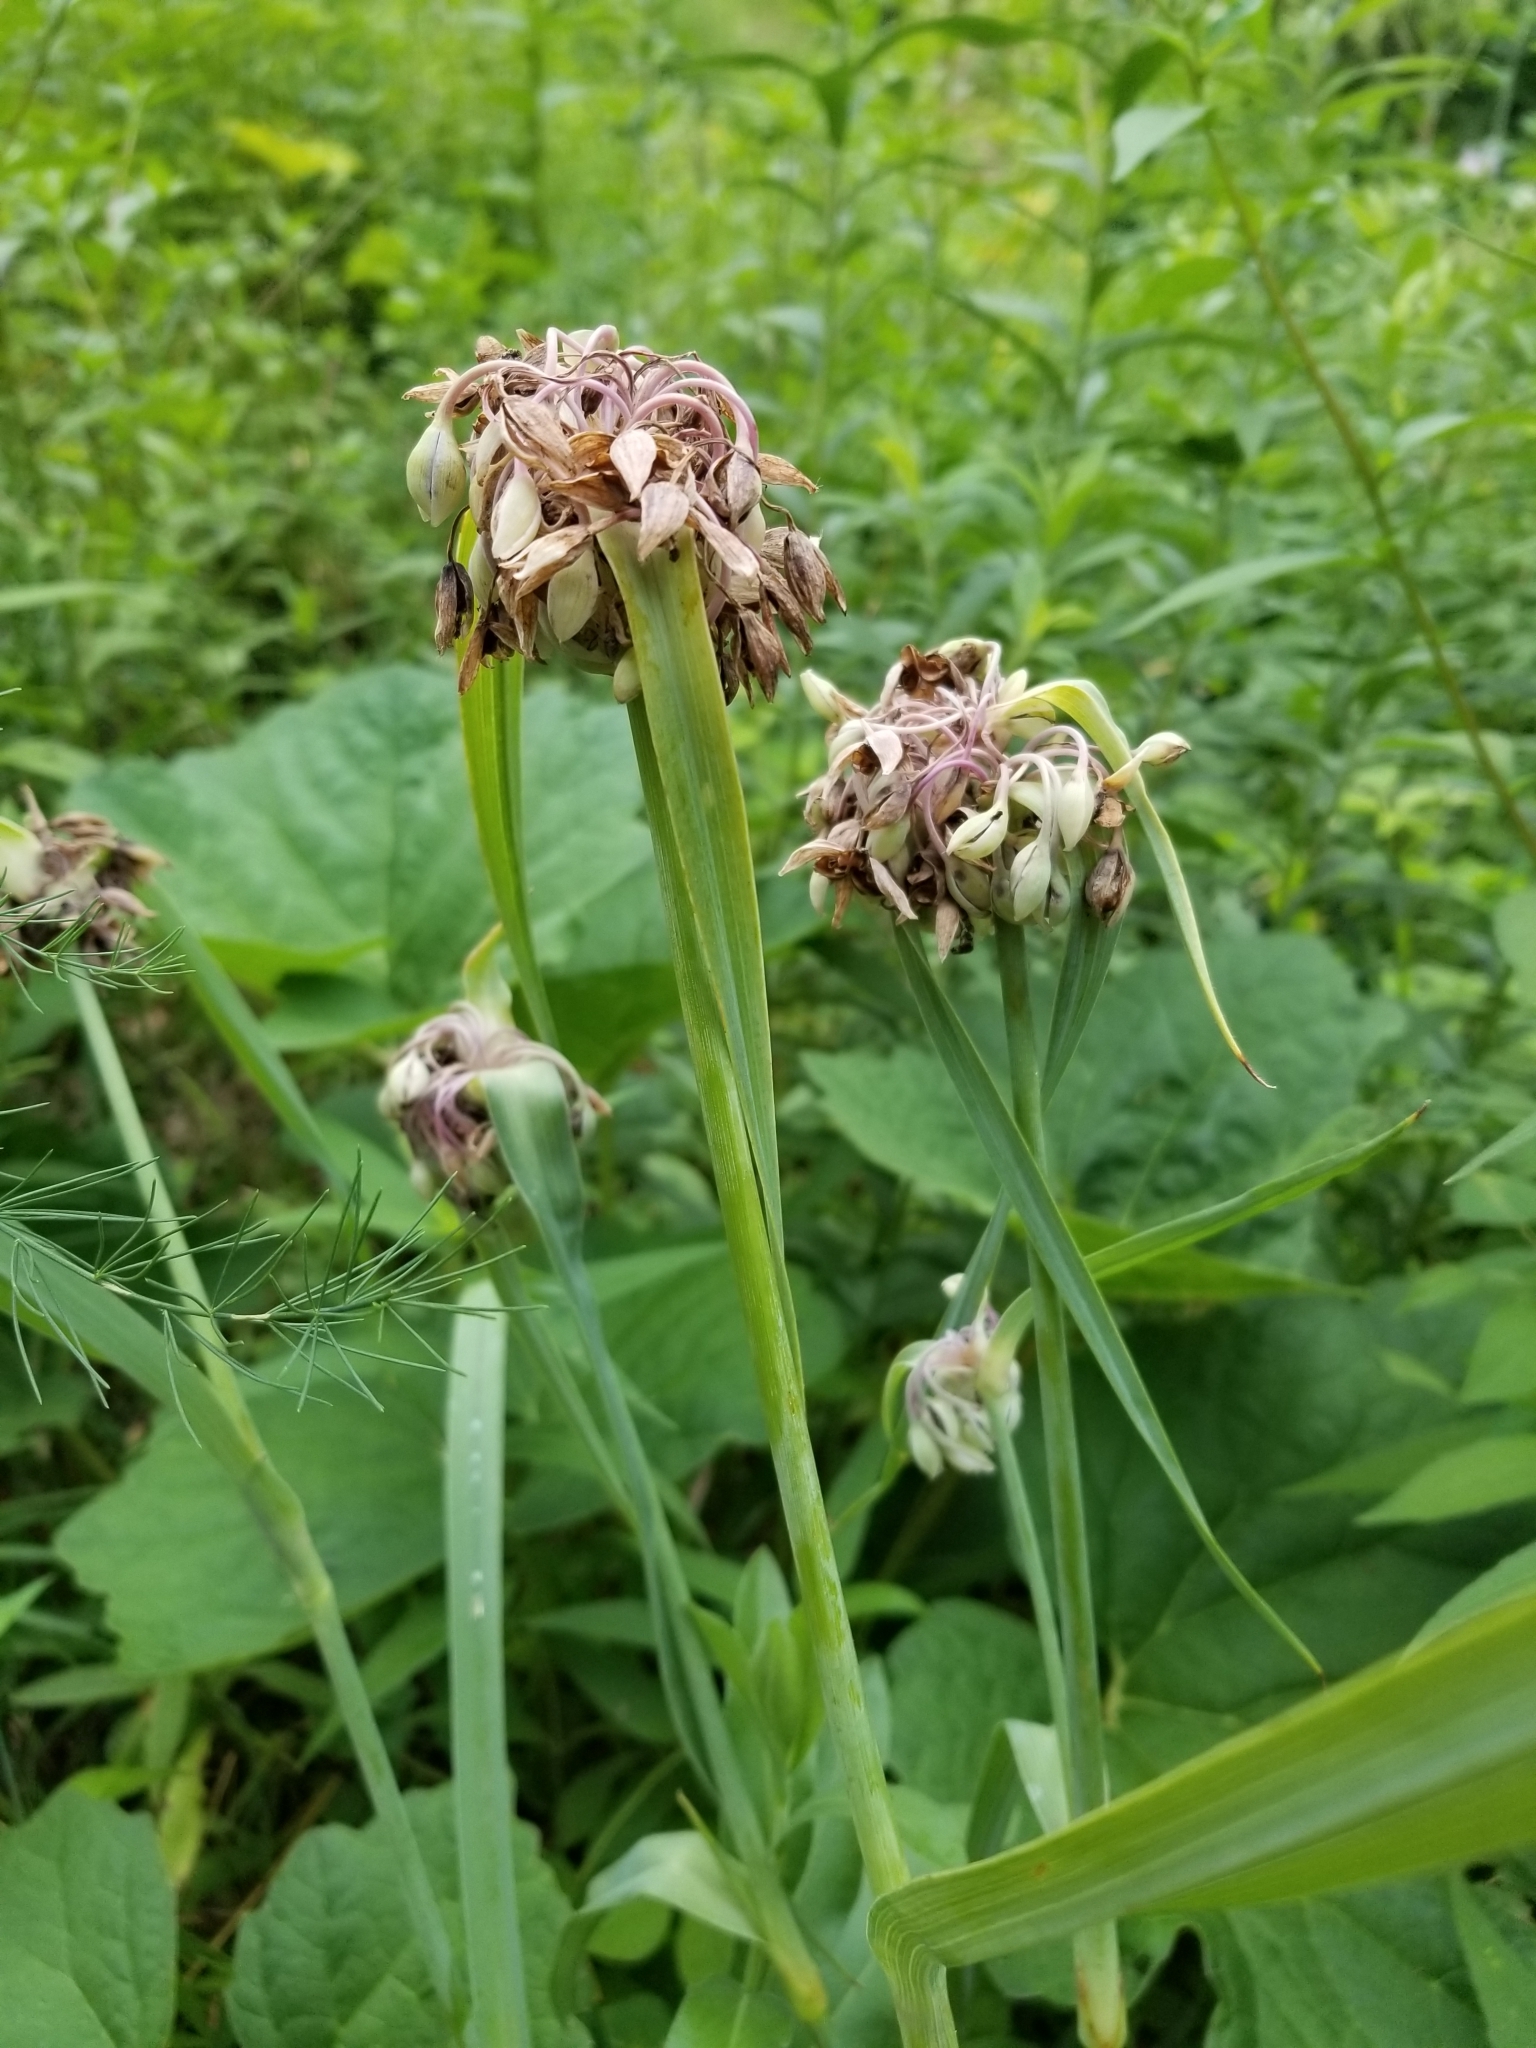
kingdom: Plantae
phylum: Tracheophyta
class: Liliopsida
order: Commelinales
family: Commelinaceae
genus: Tradescantia
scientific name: Tradescantia ohiensis
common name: Ohio spiderwort
